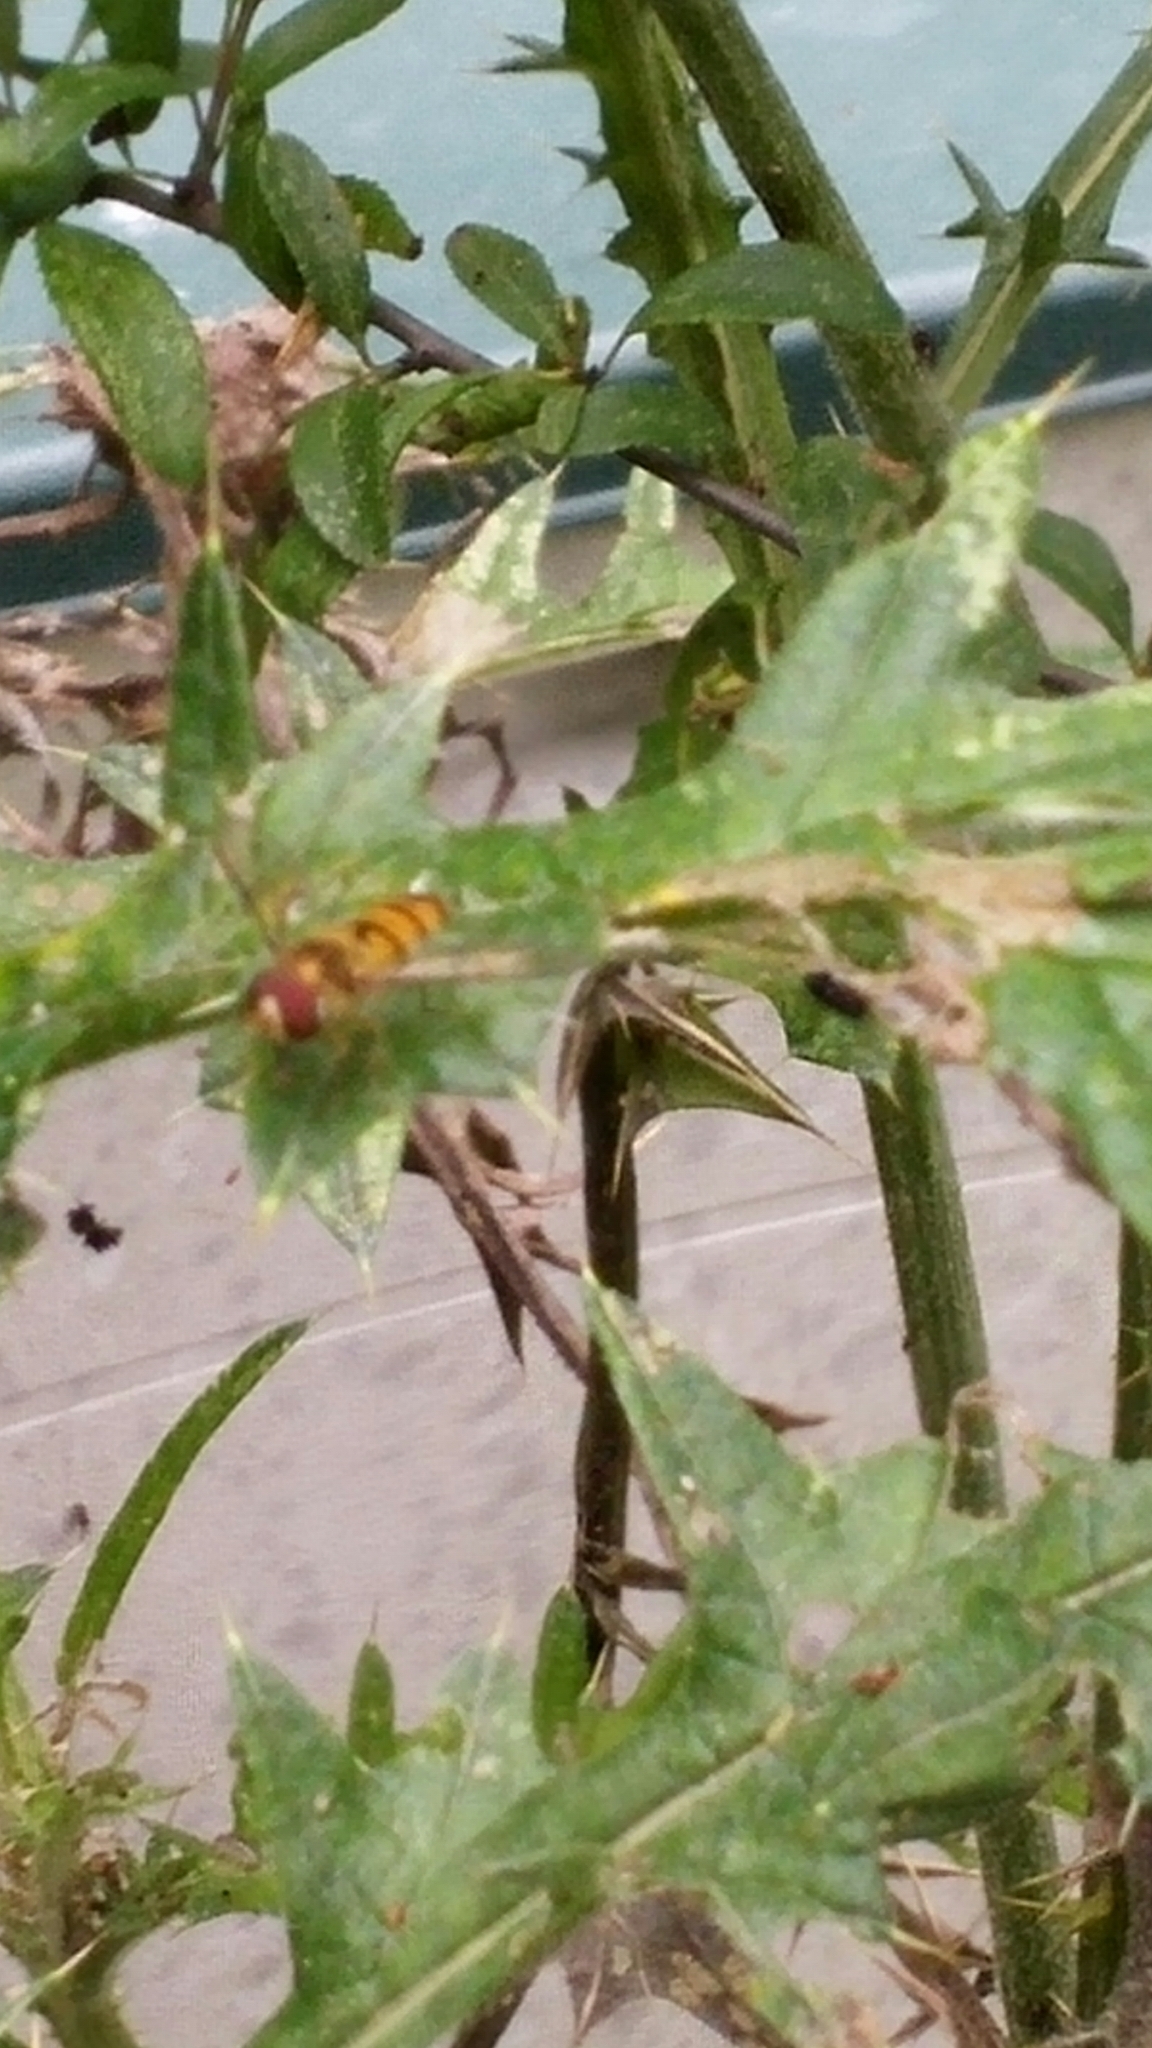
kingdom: Animalia
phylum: Arthropoda
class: Insecta
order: Diptera
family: Syrphidae
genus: Episyrphus
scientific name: Episyrphus balteatus
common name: Marmalade hoverfly
